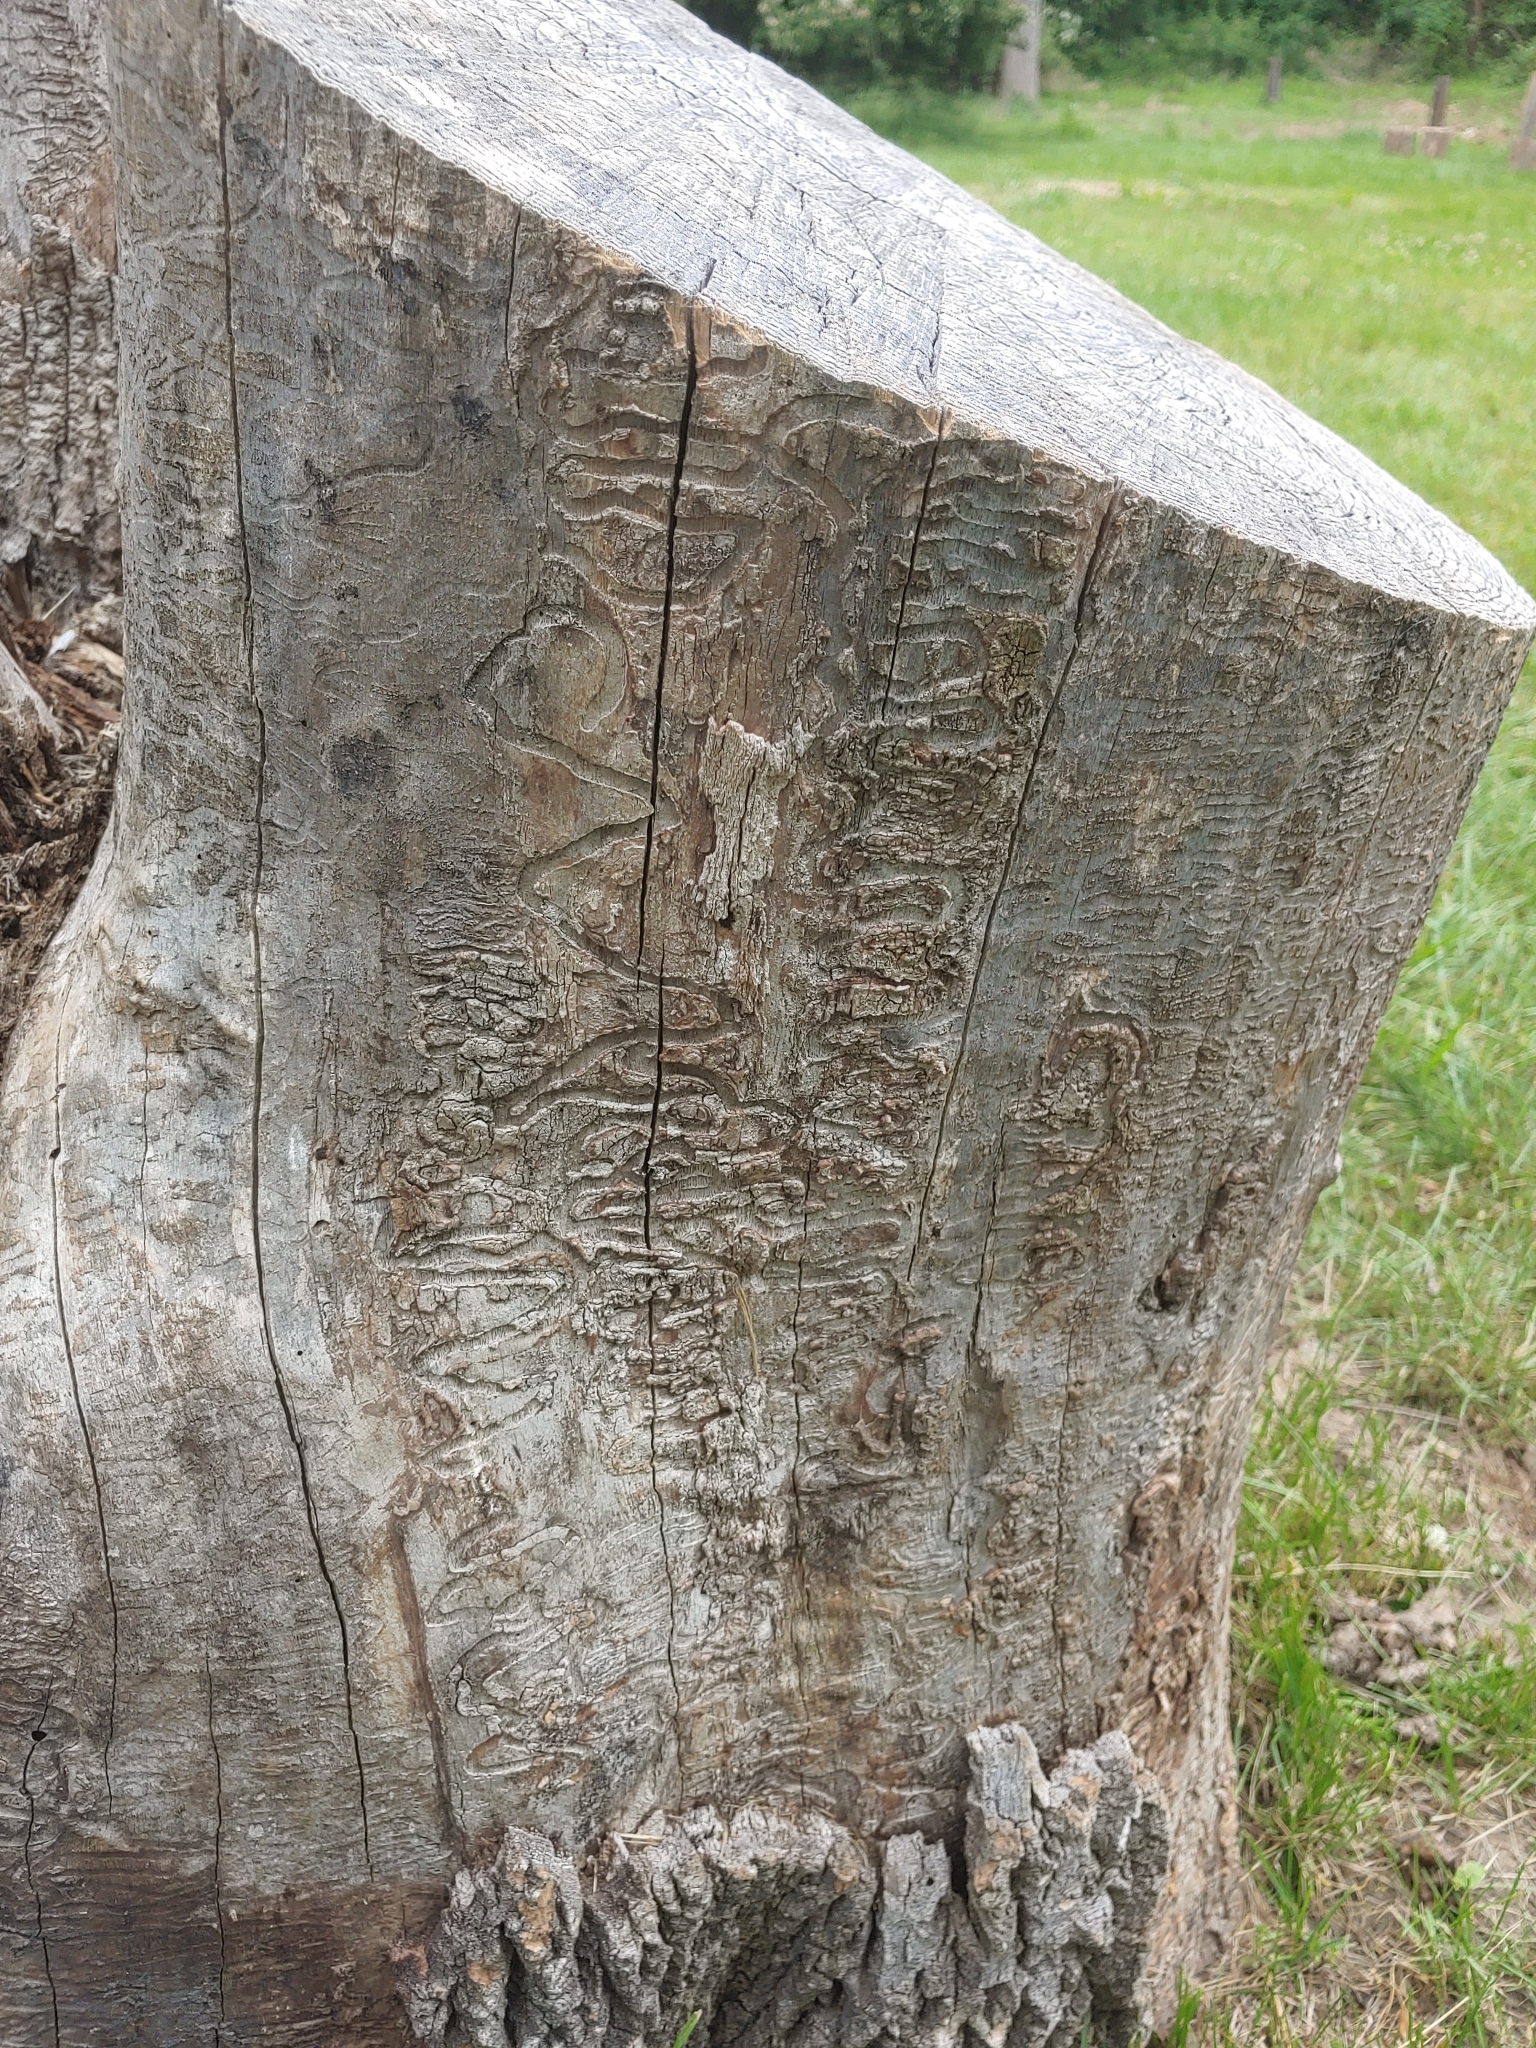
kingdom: Animalia
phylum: Arthropoda
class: Insecta
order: Coleoptera
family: Buprestidae
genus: Agrilus
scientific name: Agrilus planipennis
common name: Emerald ash borer
